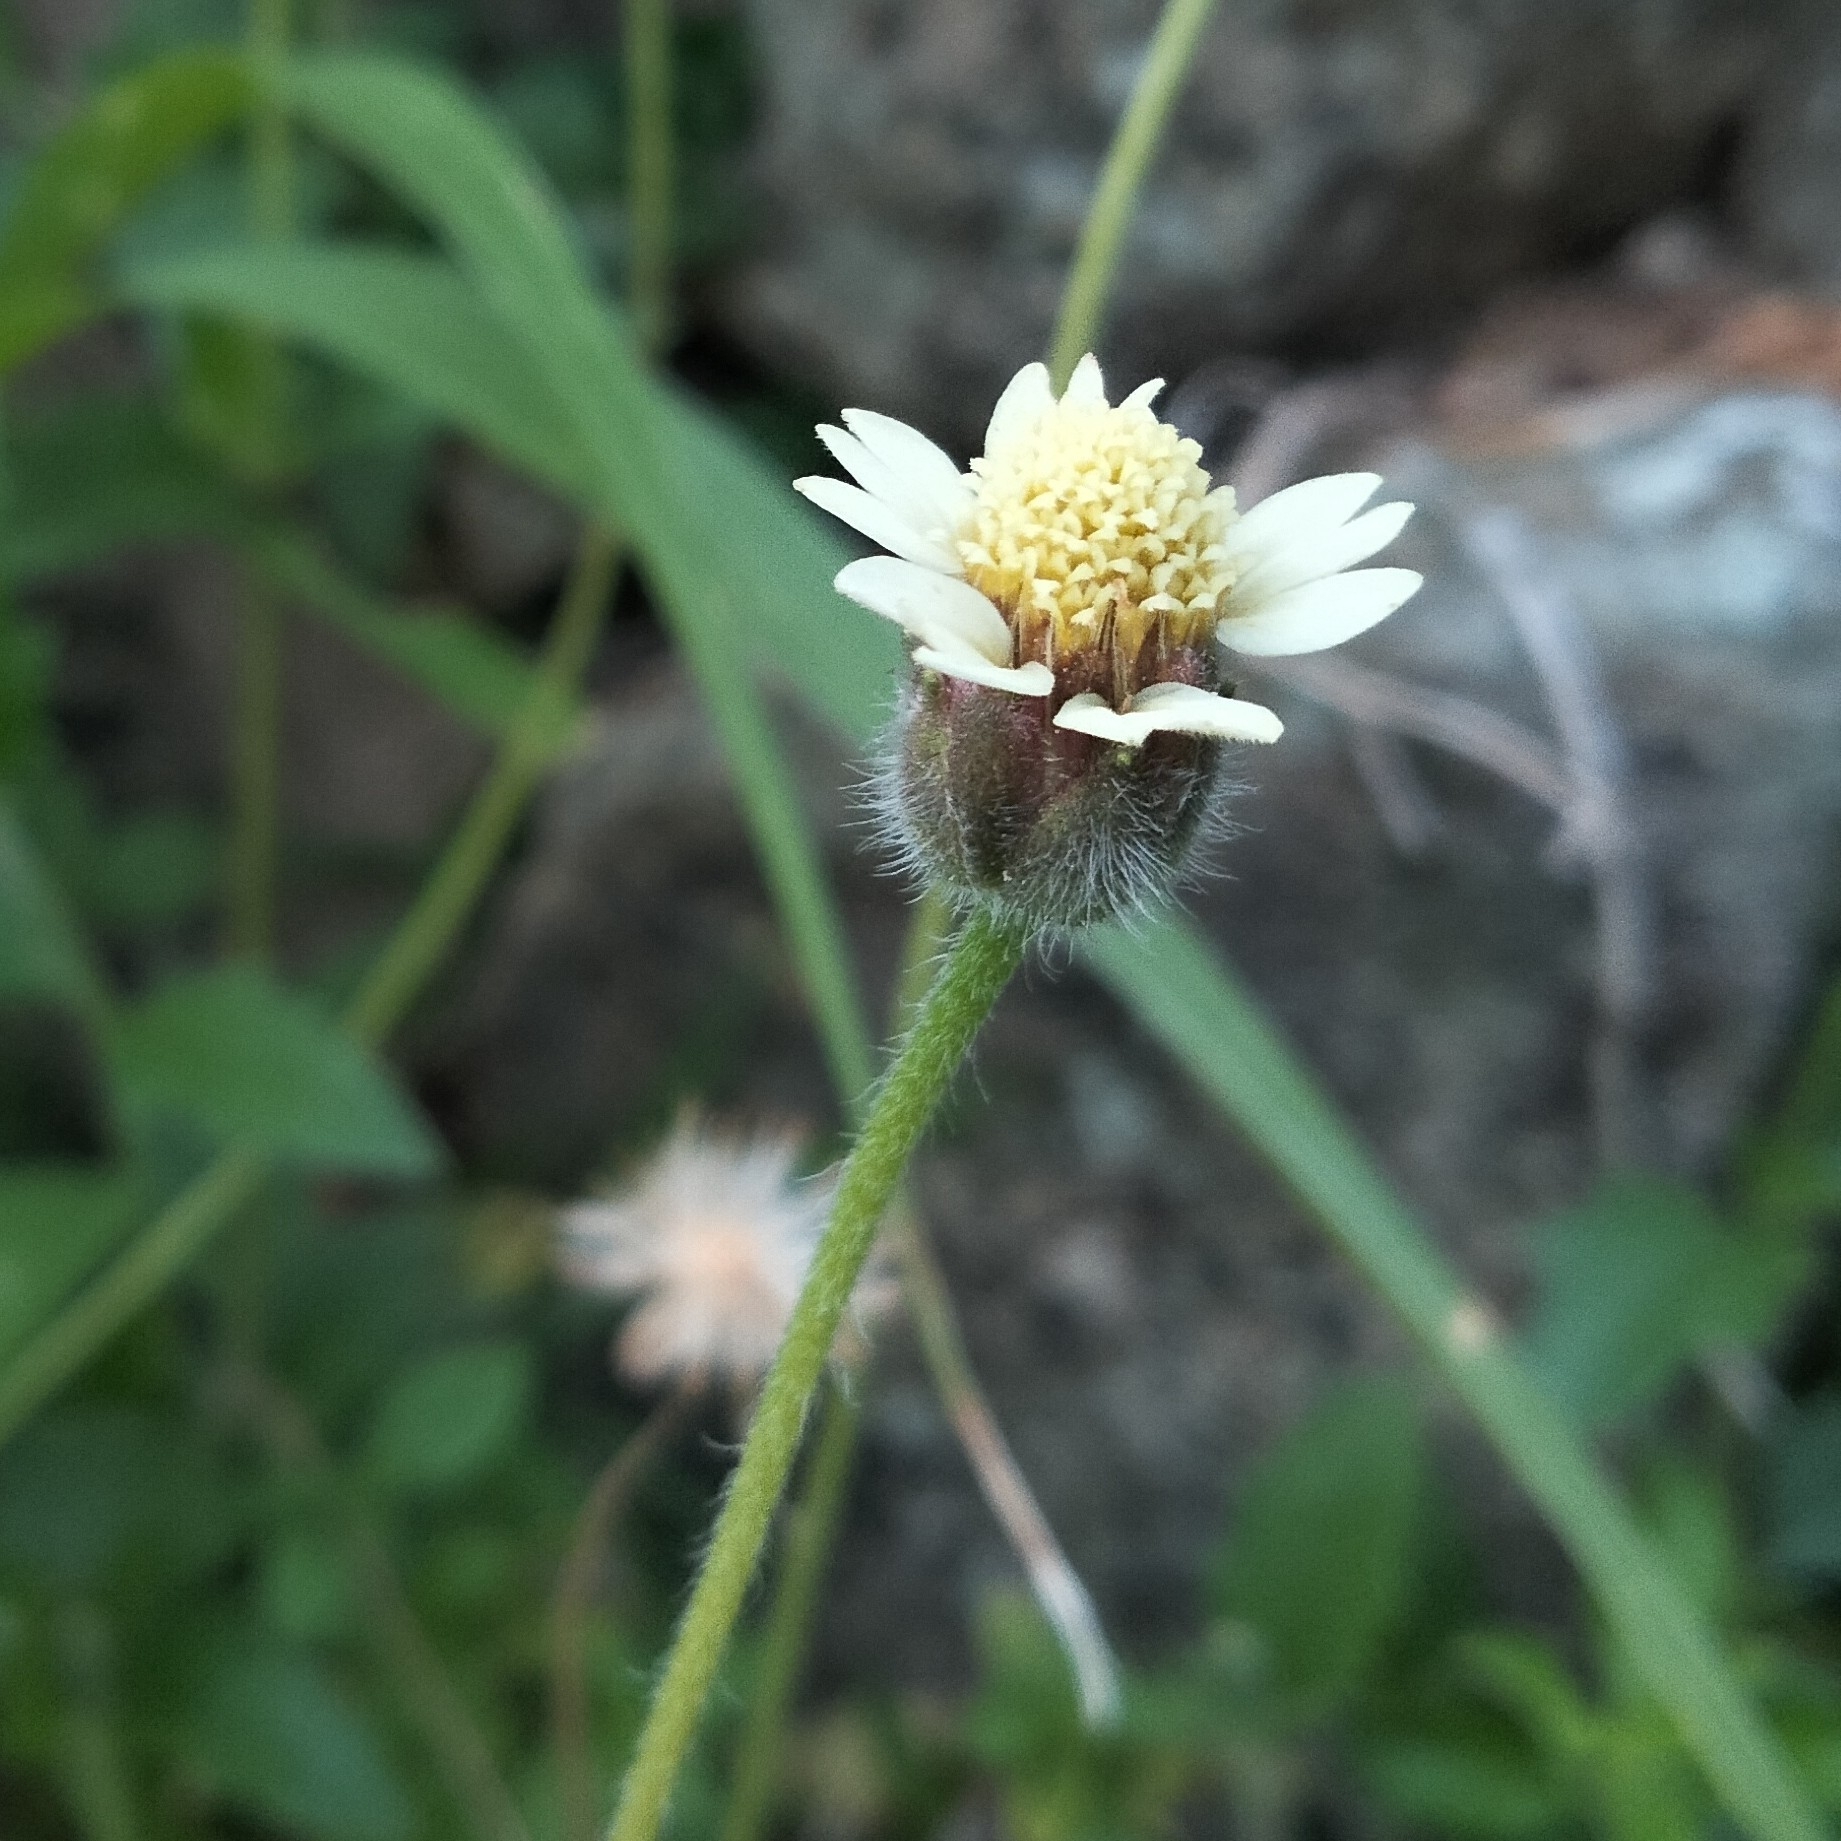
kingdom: Plantae
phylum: Tracheophyta
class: Magnoliopsida
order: Asterales
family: Asteraceae
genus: Tridax
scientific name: Tridax procumbens
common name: Coatbuttons
